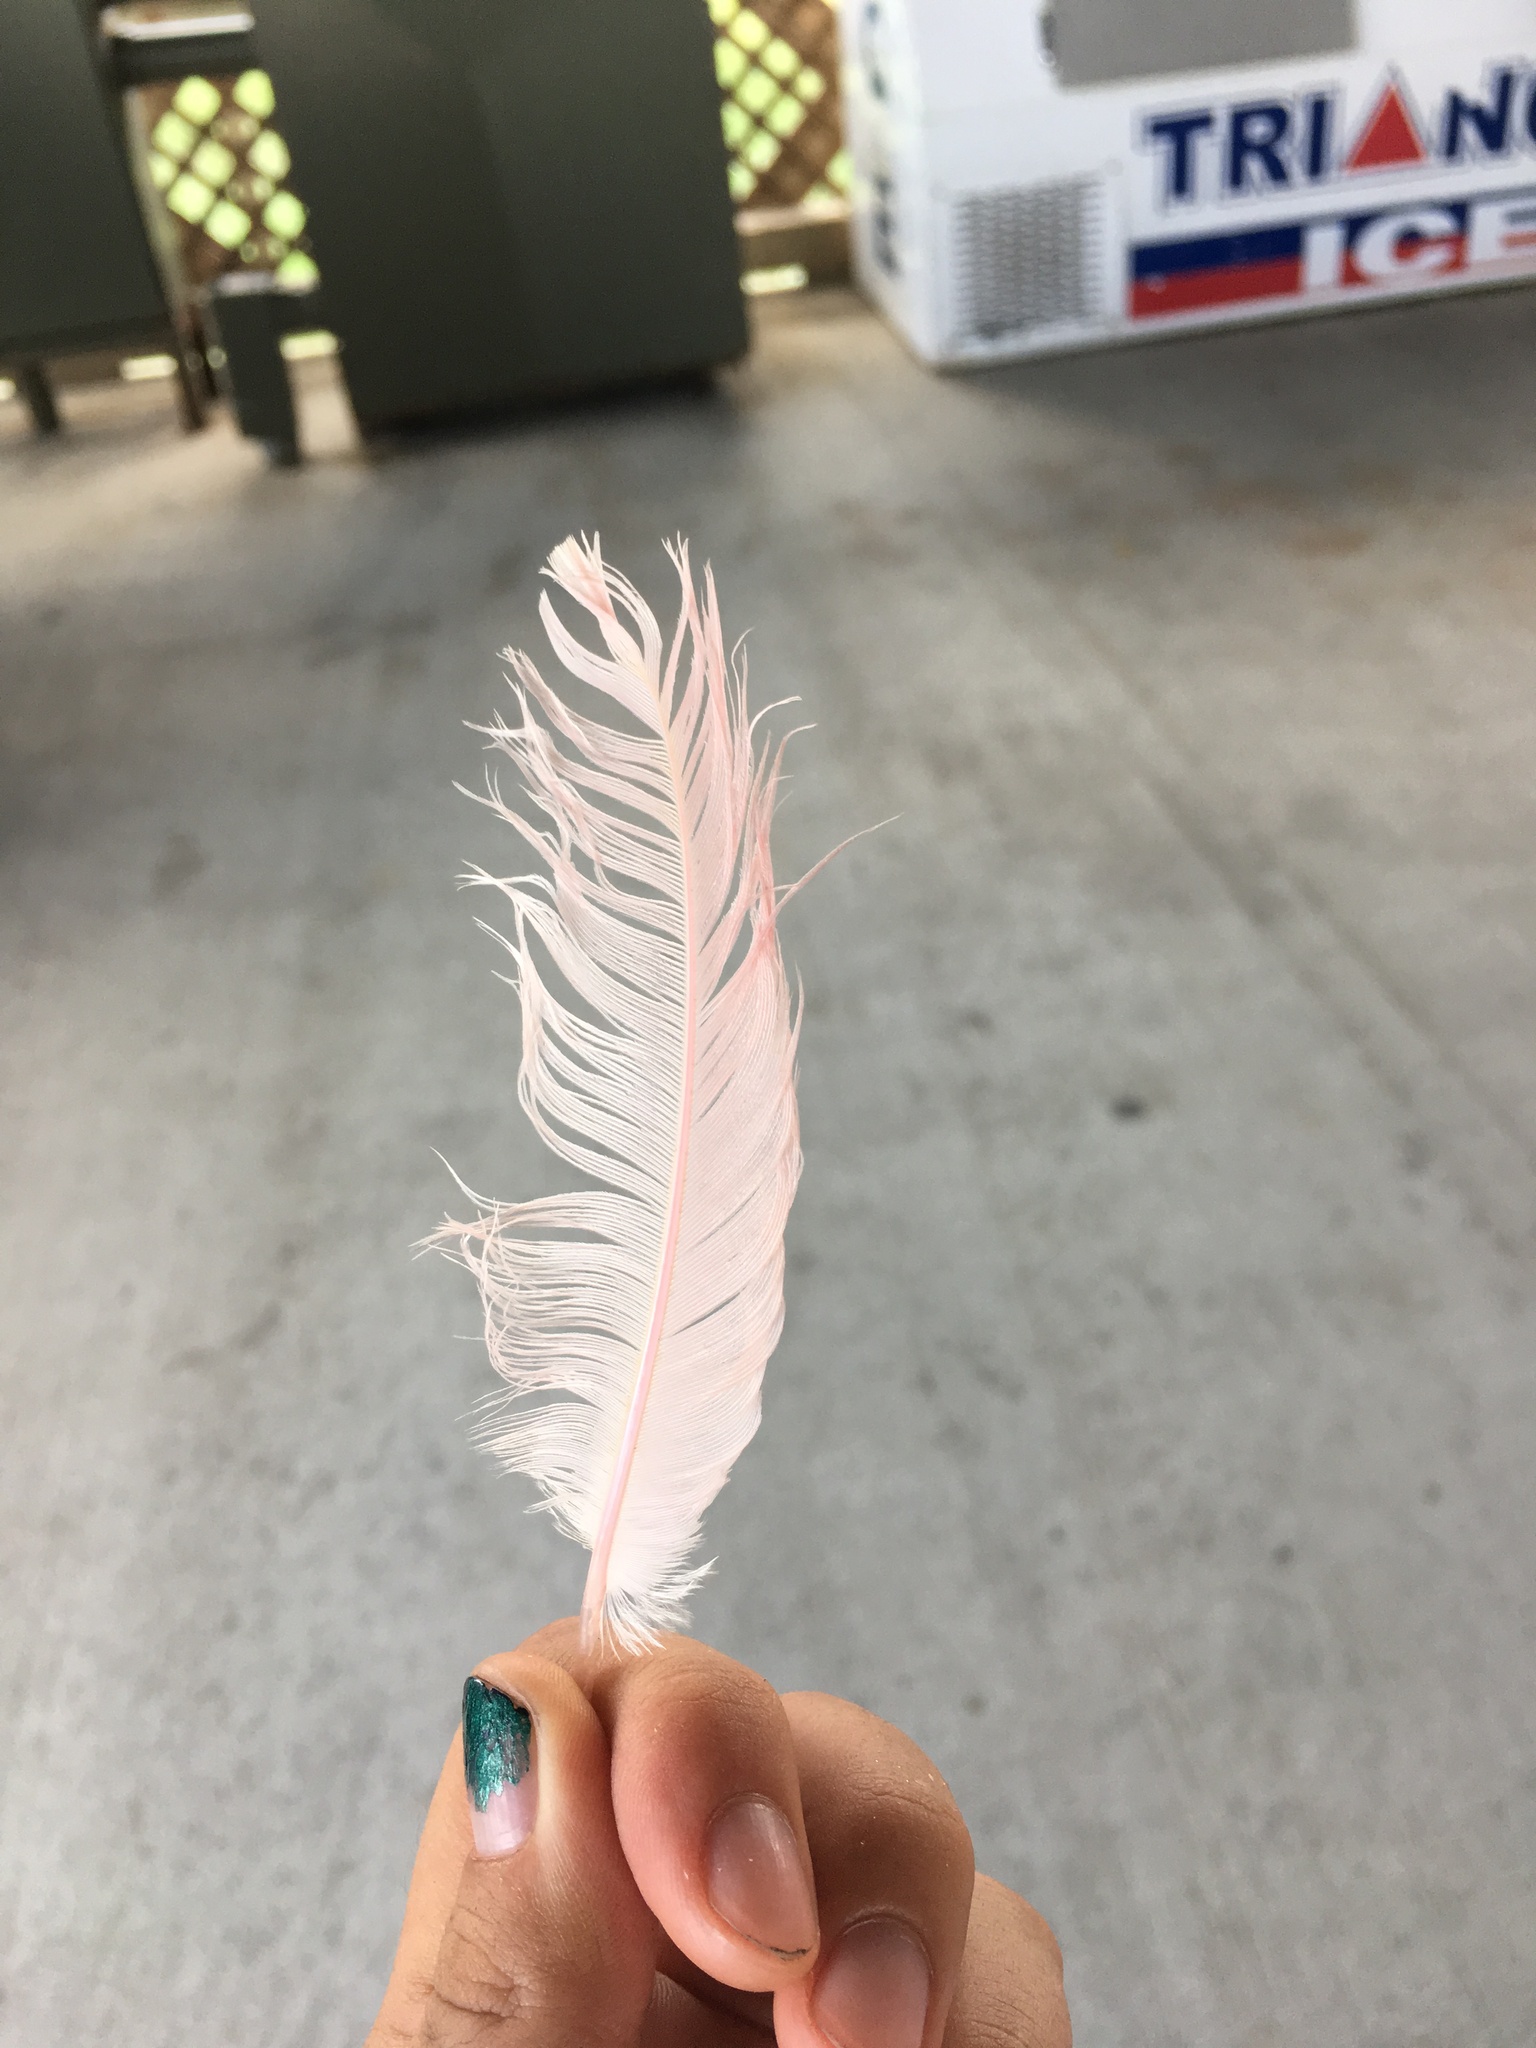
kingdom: Animalia
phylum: Chordata
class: Aves
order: Pelecaniformes
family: Threskiornithidae
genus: Platalea
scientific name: Platalea ajaja
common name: Roseate spoonbill
